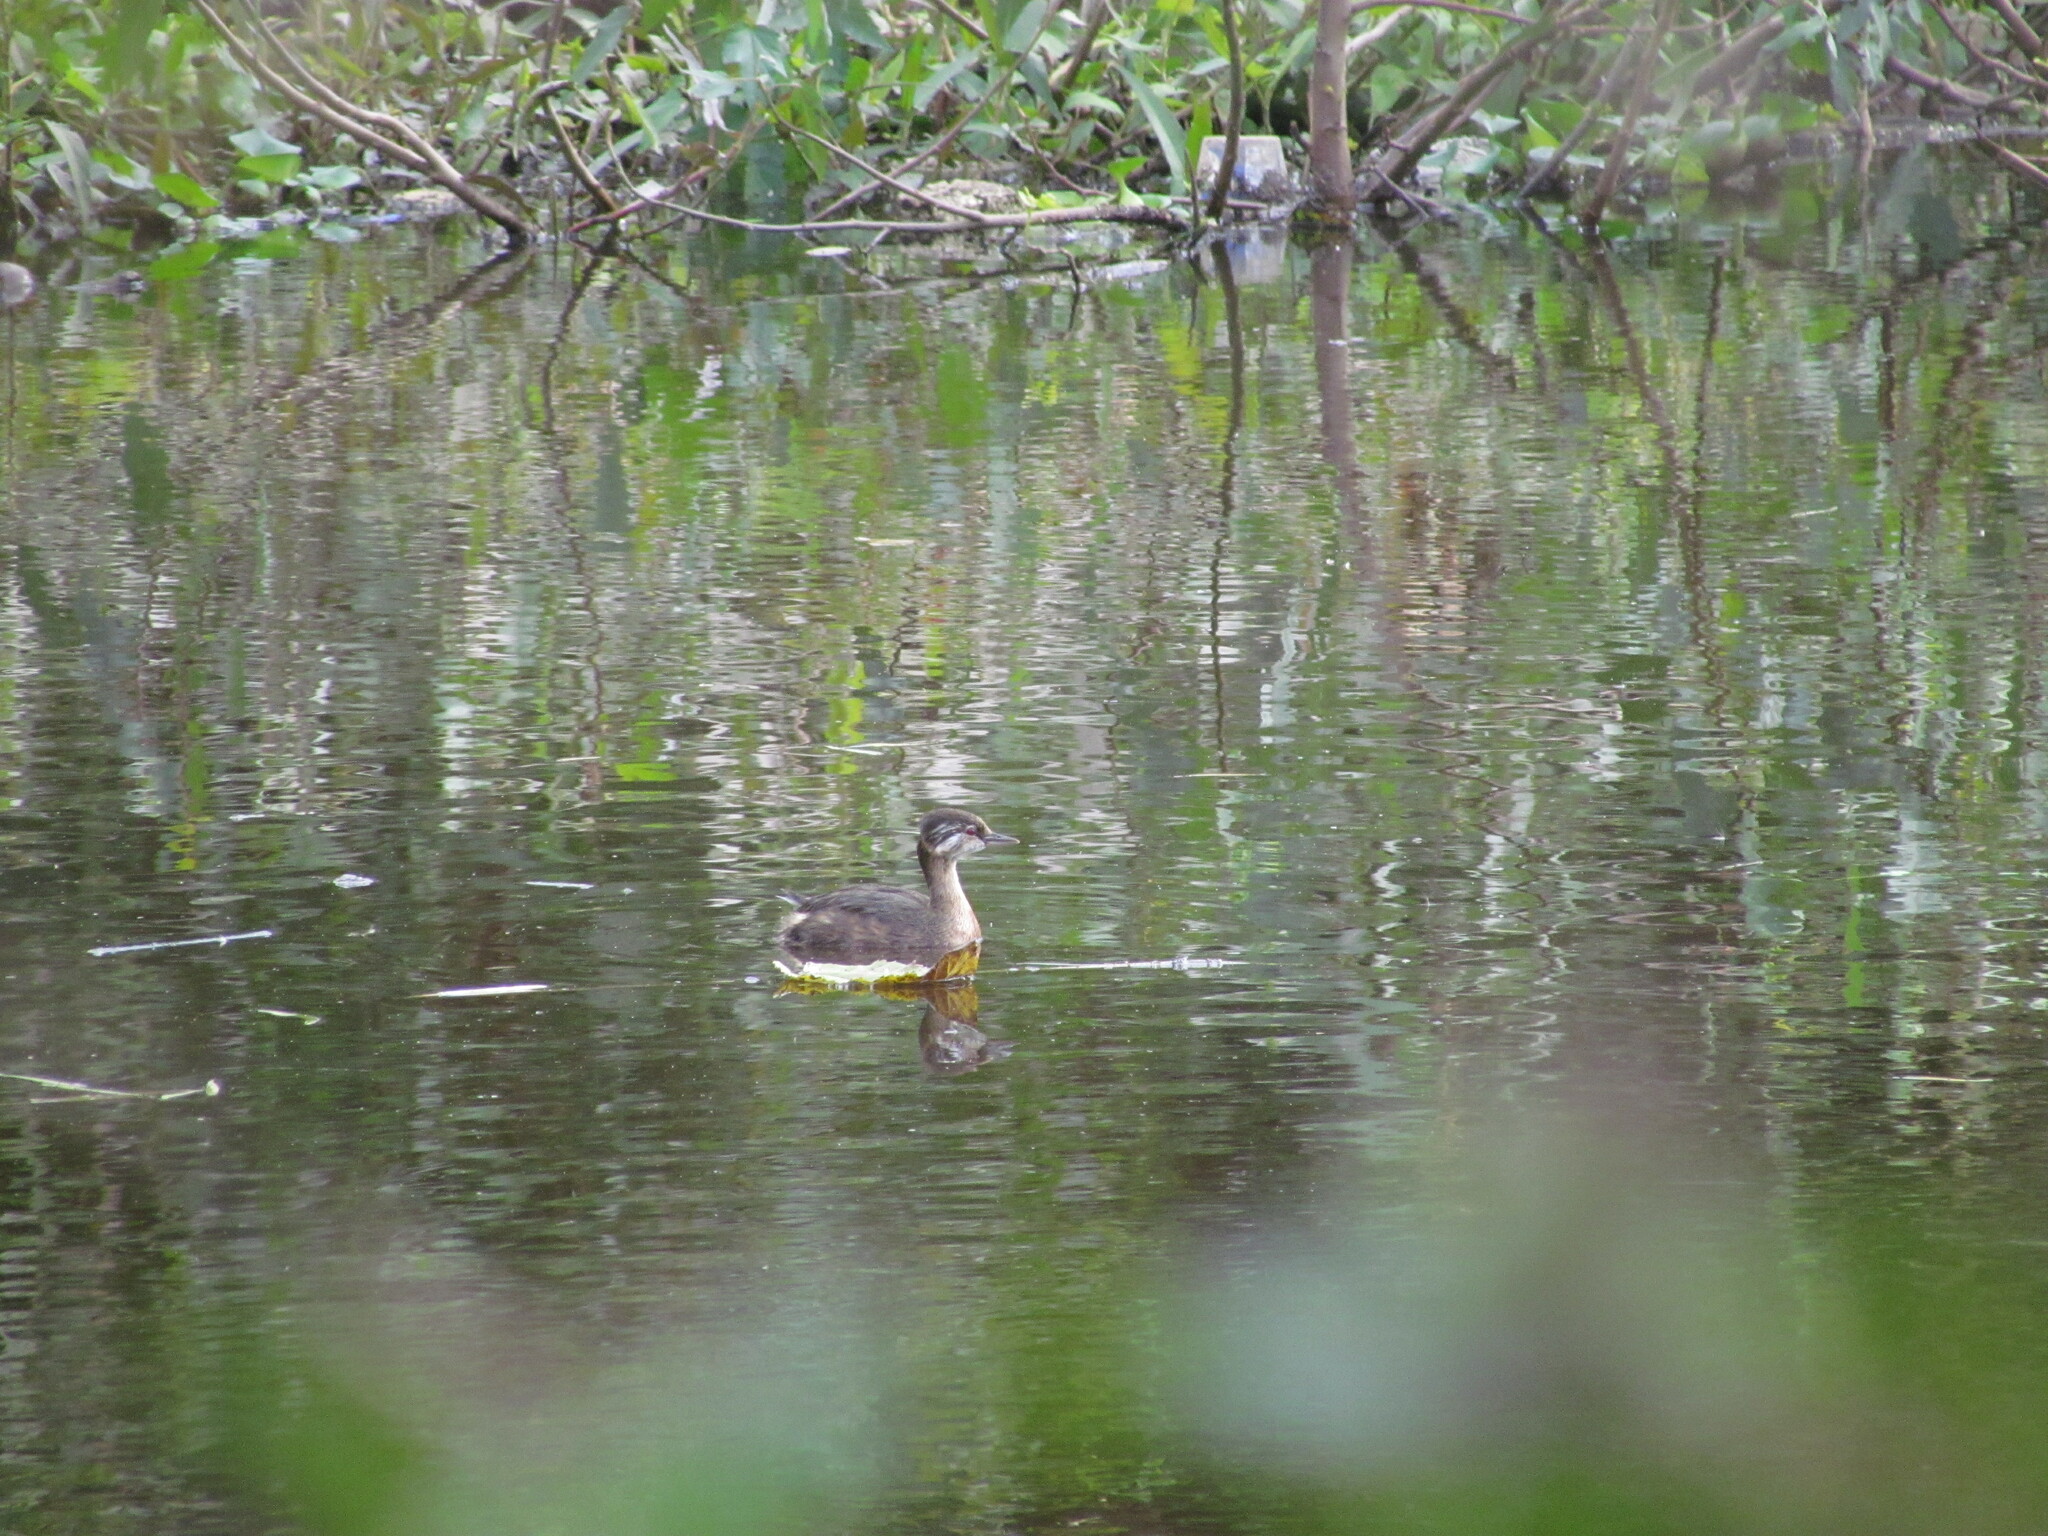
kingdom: Animalia
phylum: Chordata
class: Aves
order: Podicipediformes
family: Podicipedidae
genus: Rollandia
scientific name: Rollandia rolland
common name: White-tufted grebe
